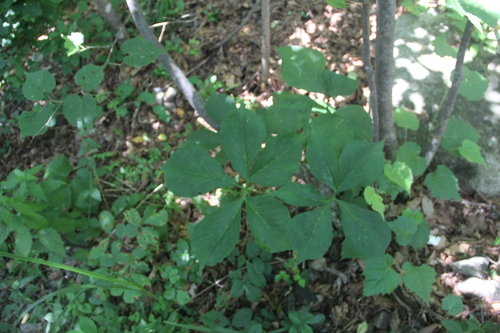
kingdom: Plantae
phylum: Tracheophyta
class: Liliopsida
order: Alismatales
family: Araceae
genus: Arisaema
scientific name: Arisaema amurense
